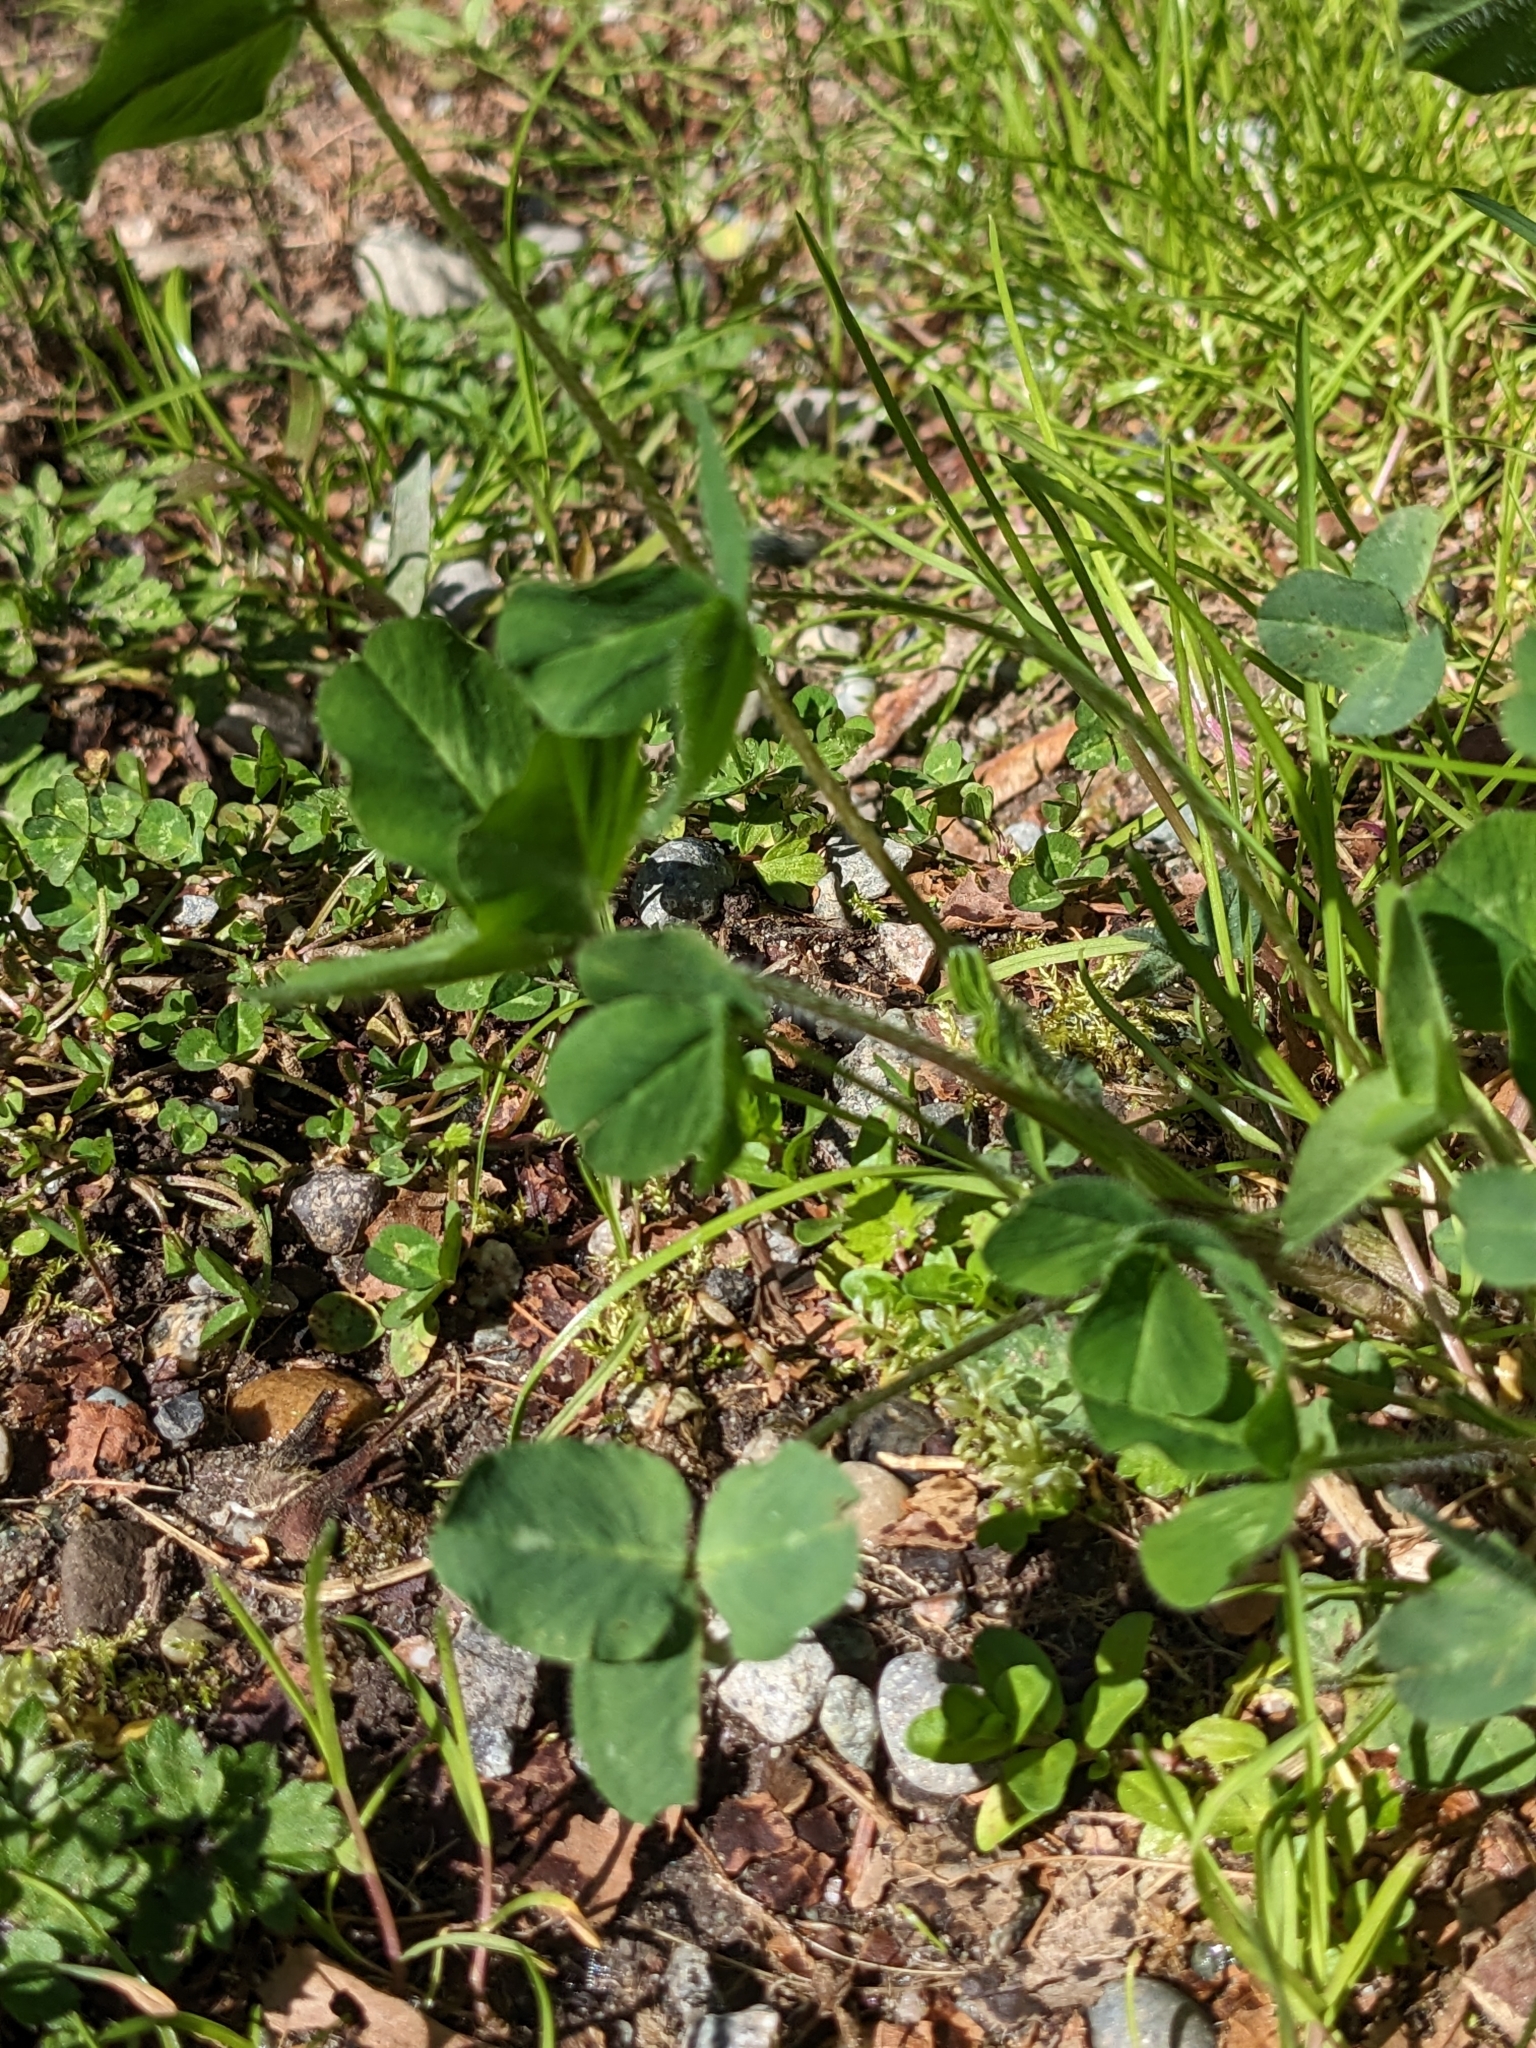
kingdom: Plantae
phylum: Tracheophyta
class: Magnoliopsida
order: Fabales
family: Fabaceae
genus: Trifolium
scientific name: Trifolium pratense
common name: Red clover
